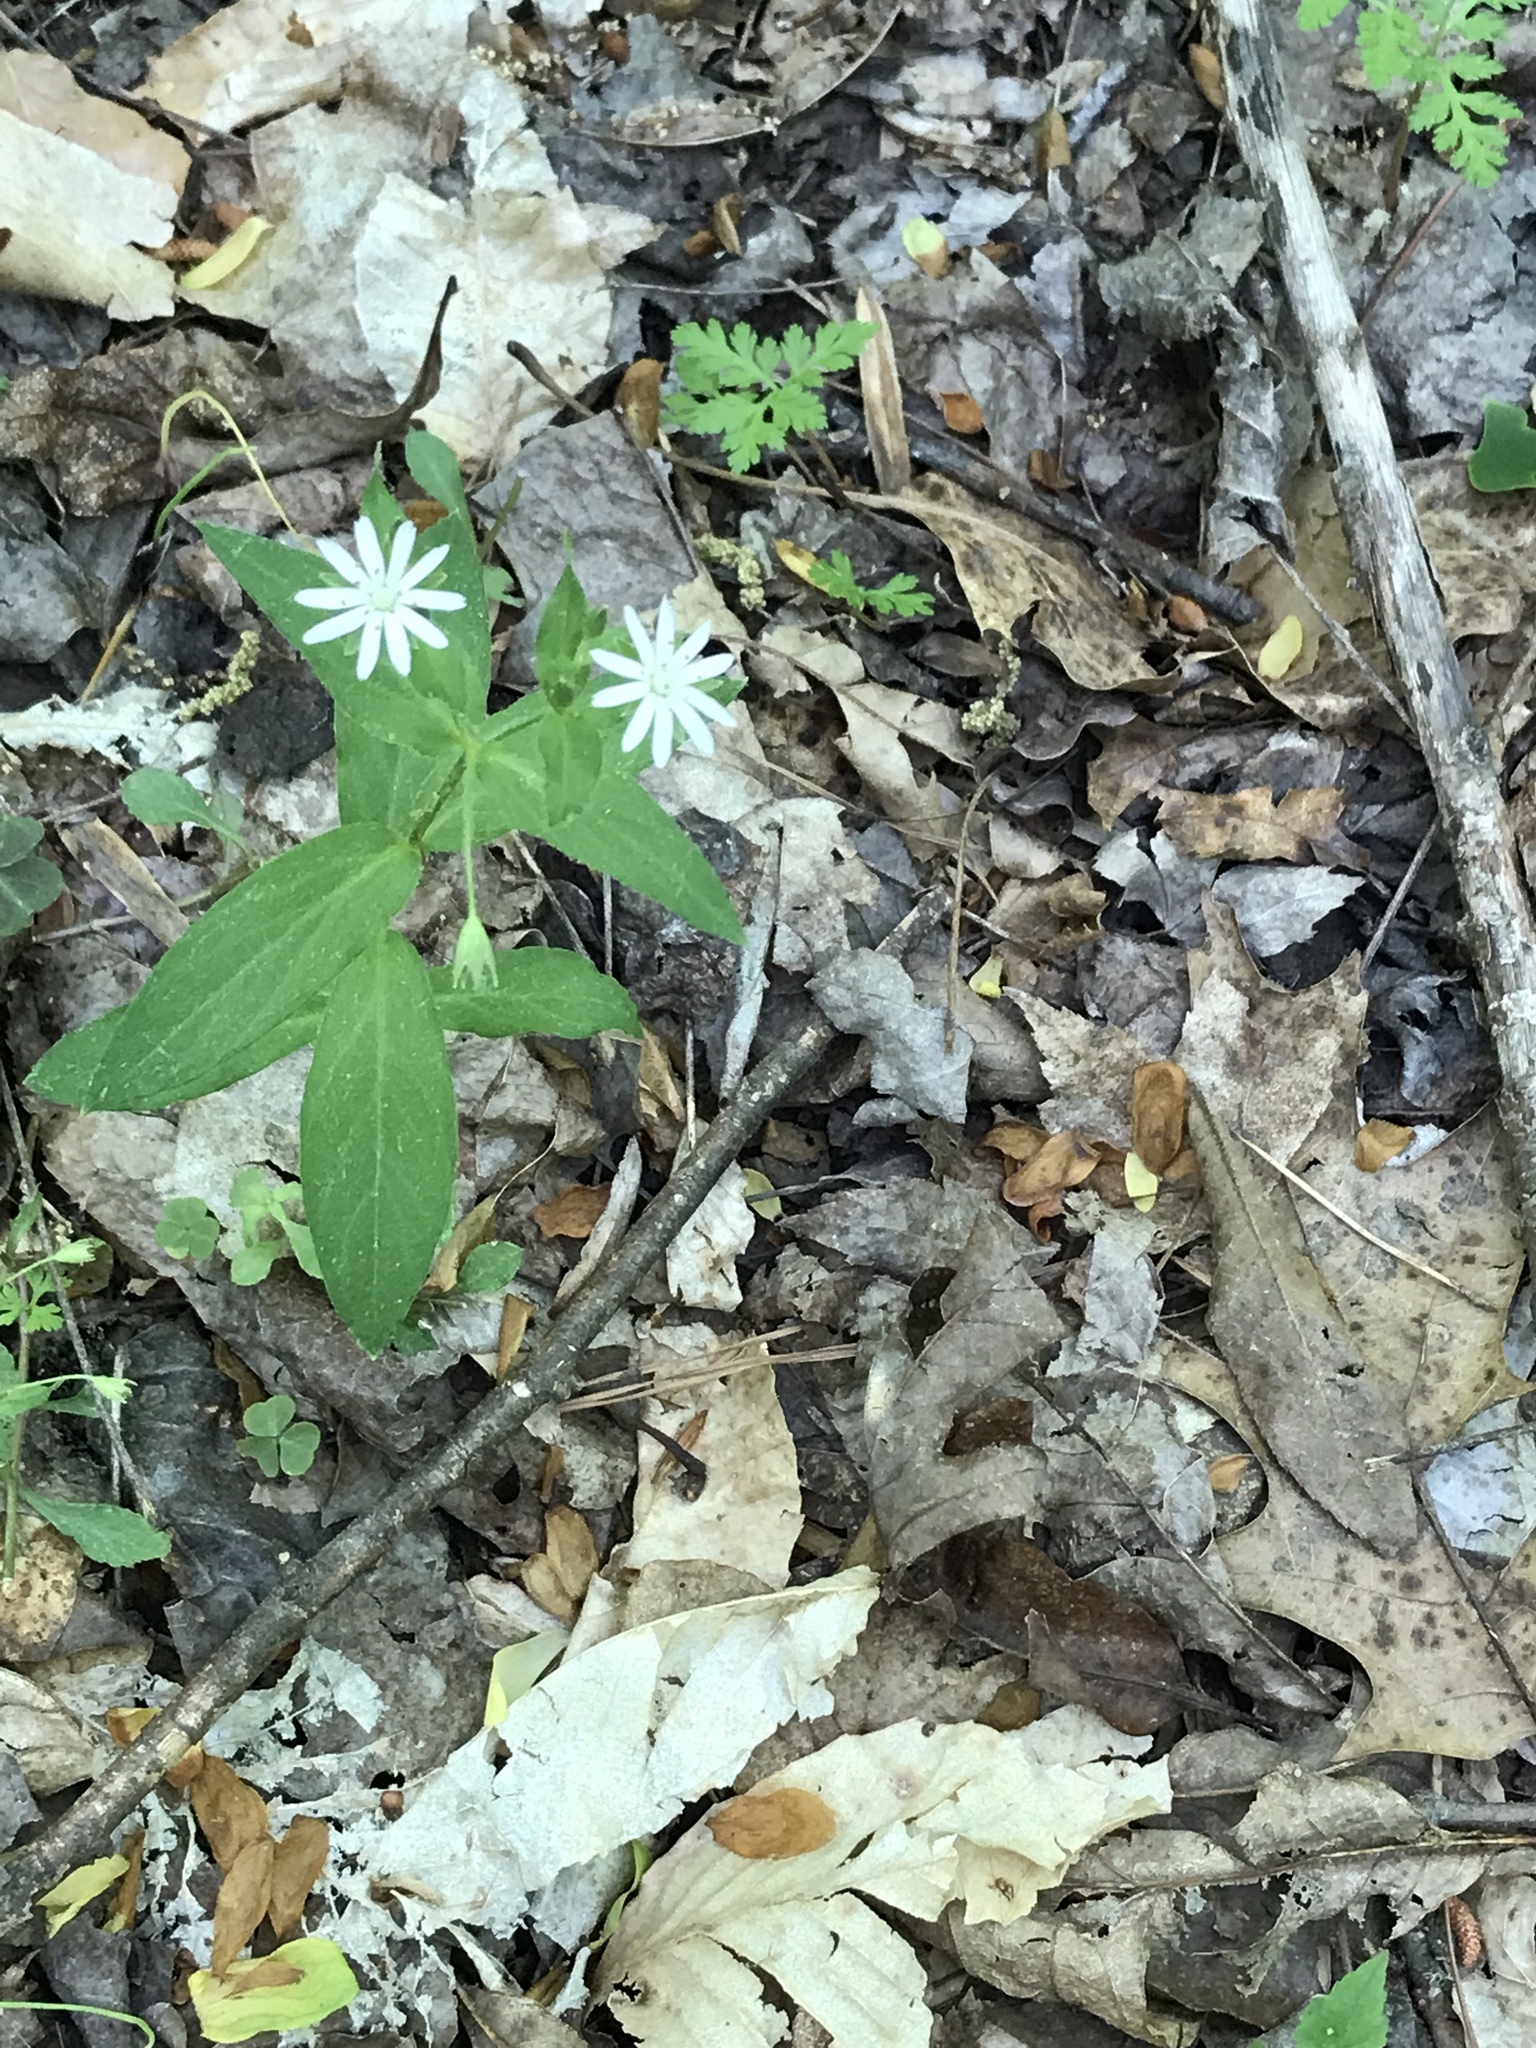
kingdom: Plantae
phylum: Tracheophyta
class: Magnoliopsida
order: Caryophyllales
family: Caryophyllaceae
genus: Stellaria
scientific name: Stellaria pubera
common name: Star chickweed
